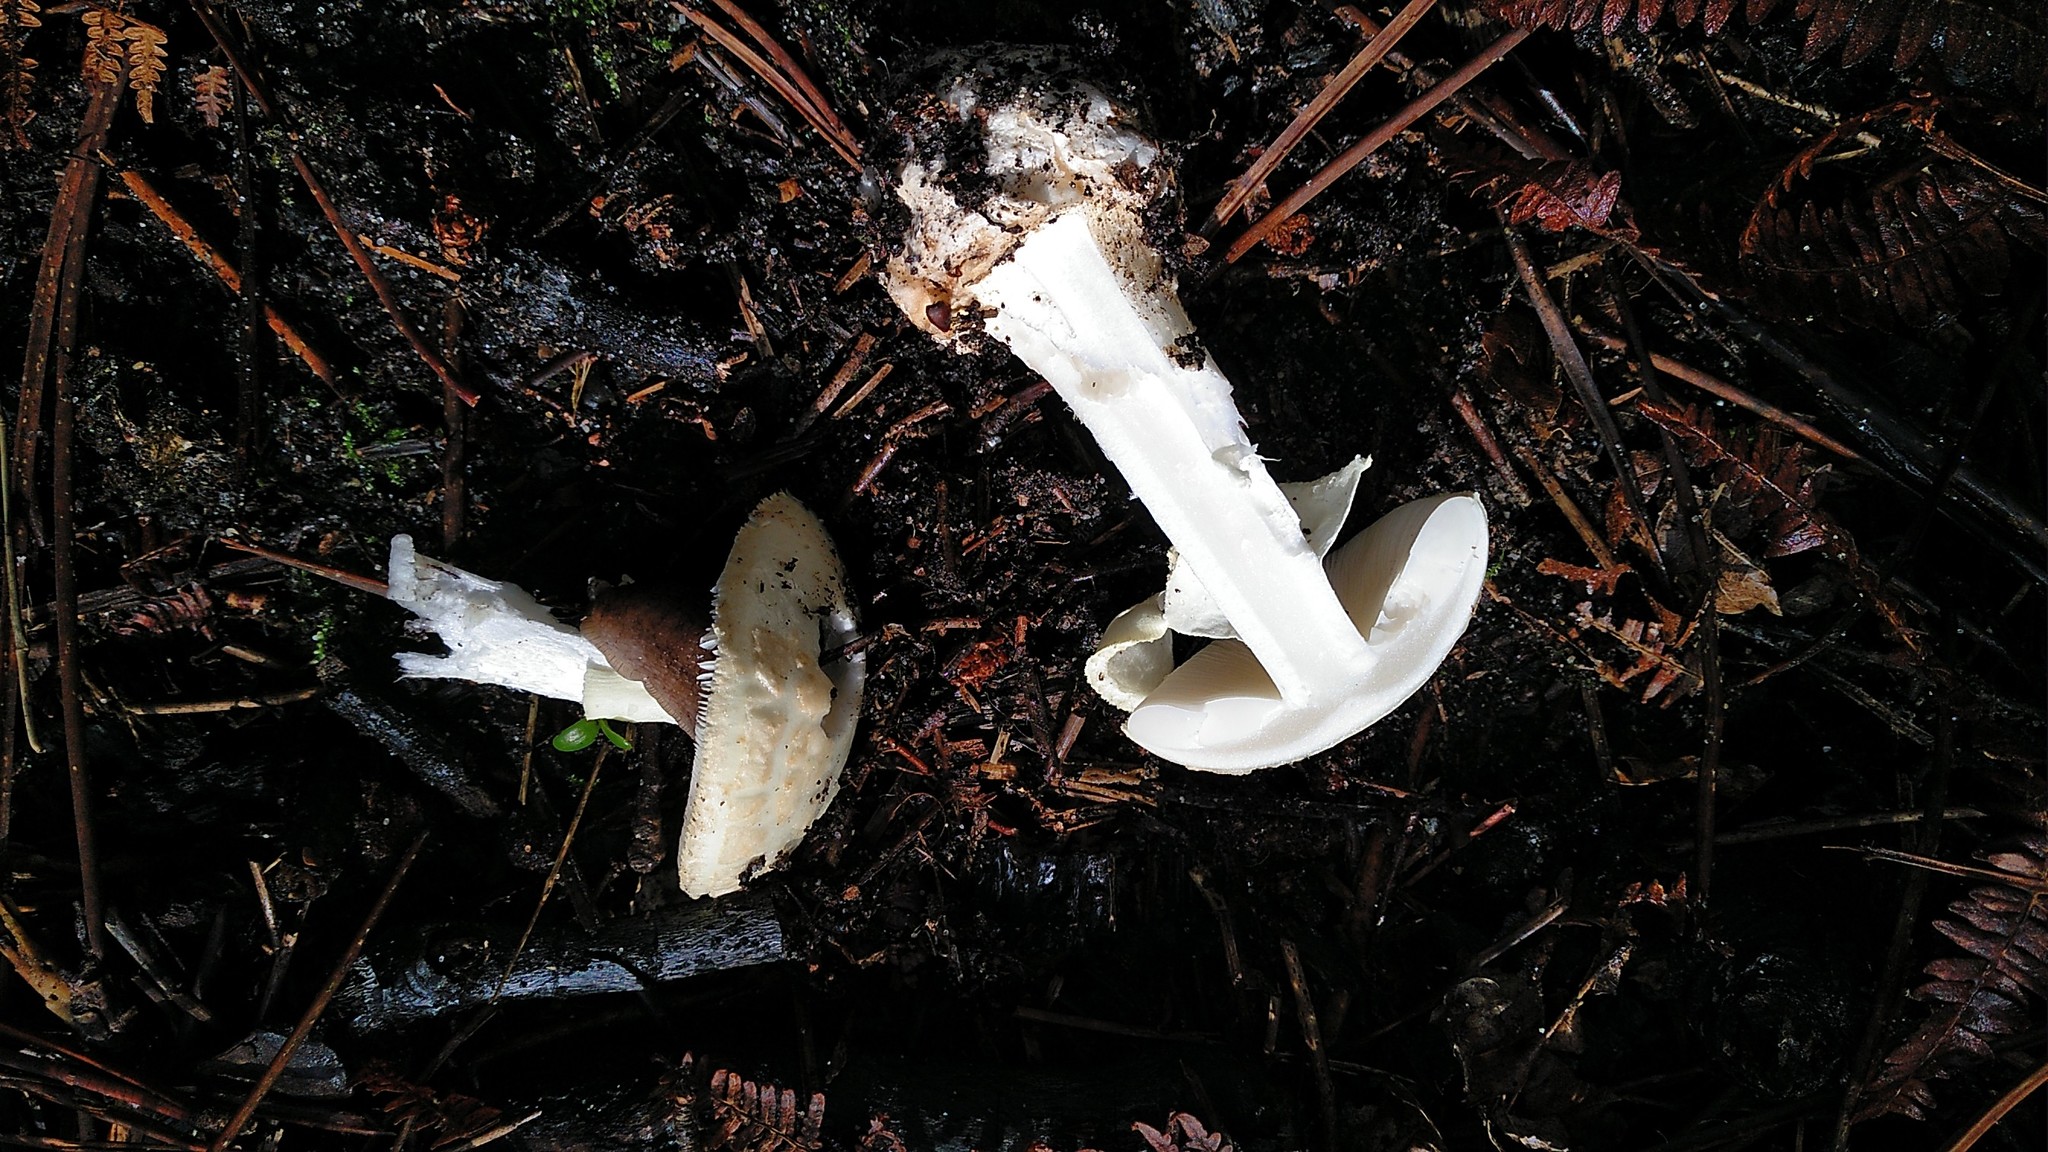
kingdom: Fungi
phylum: Basidiomycota
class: Agaricomycetes
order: Agaricales
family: Amanitaceae
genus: Amanita
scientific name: Amanita citrina
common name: False death-cap
